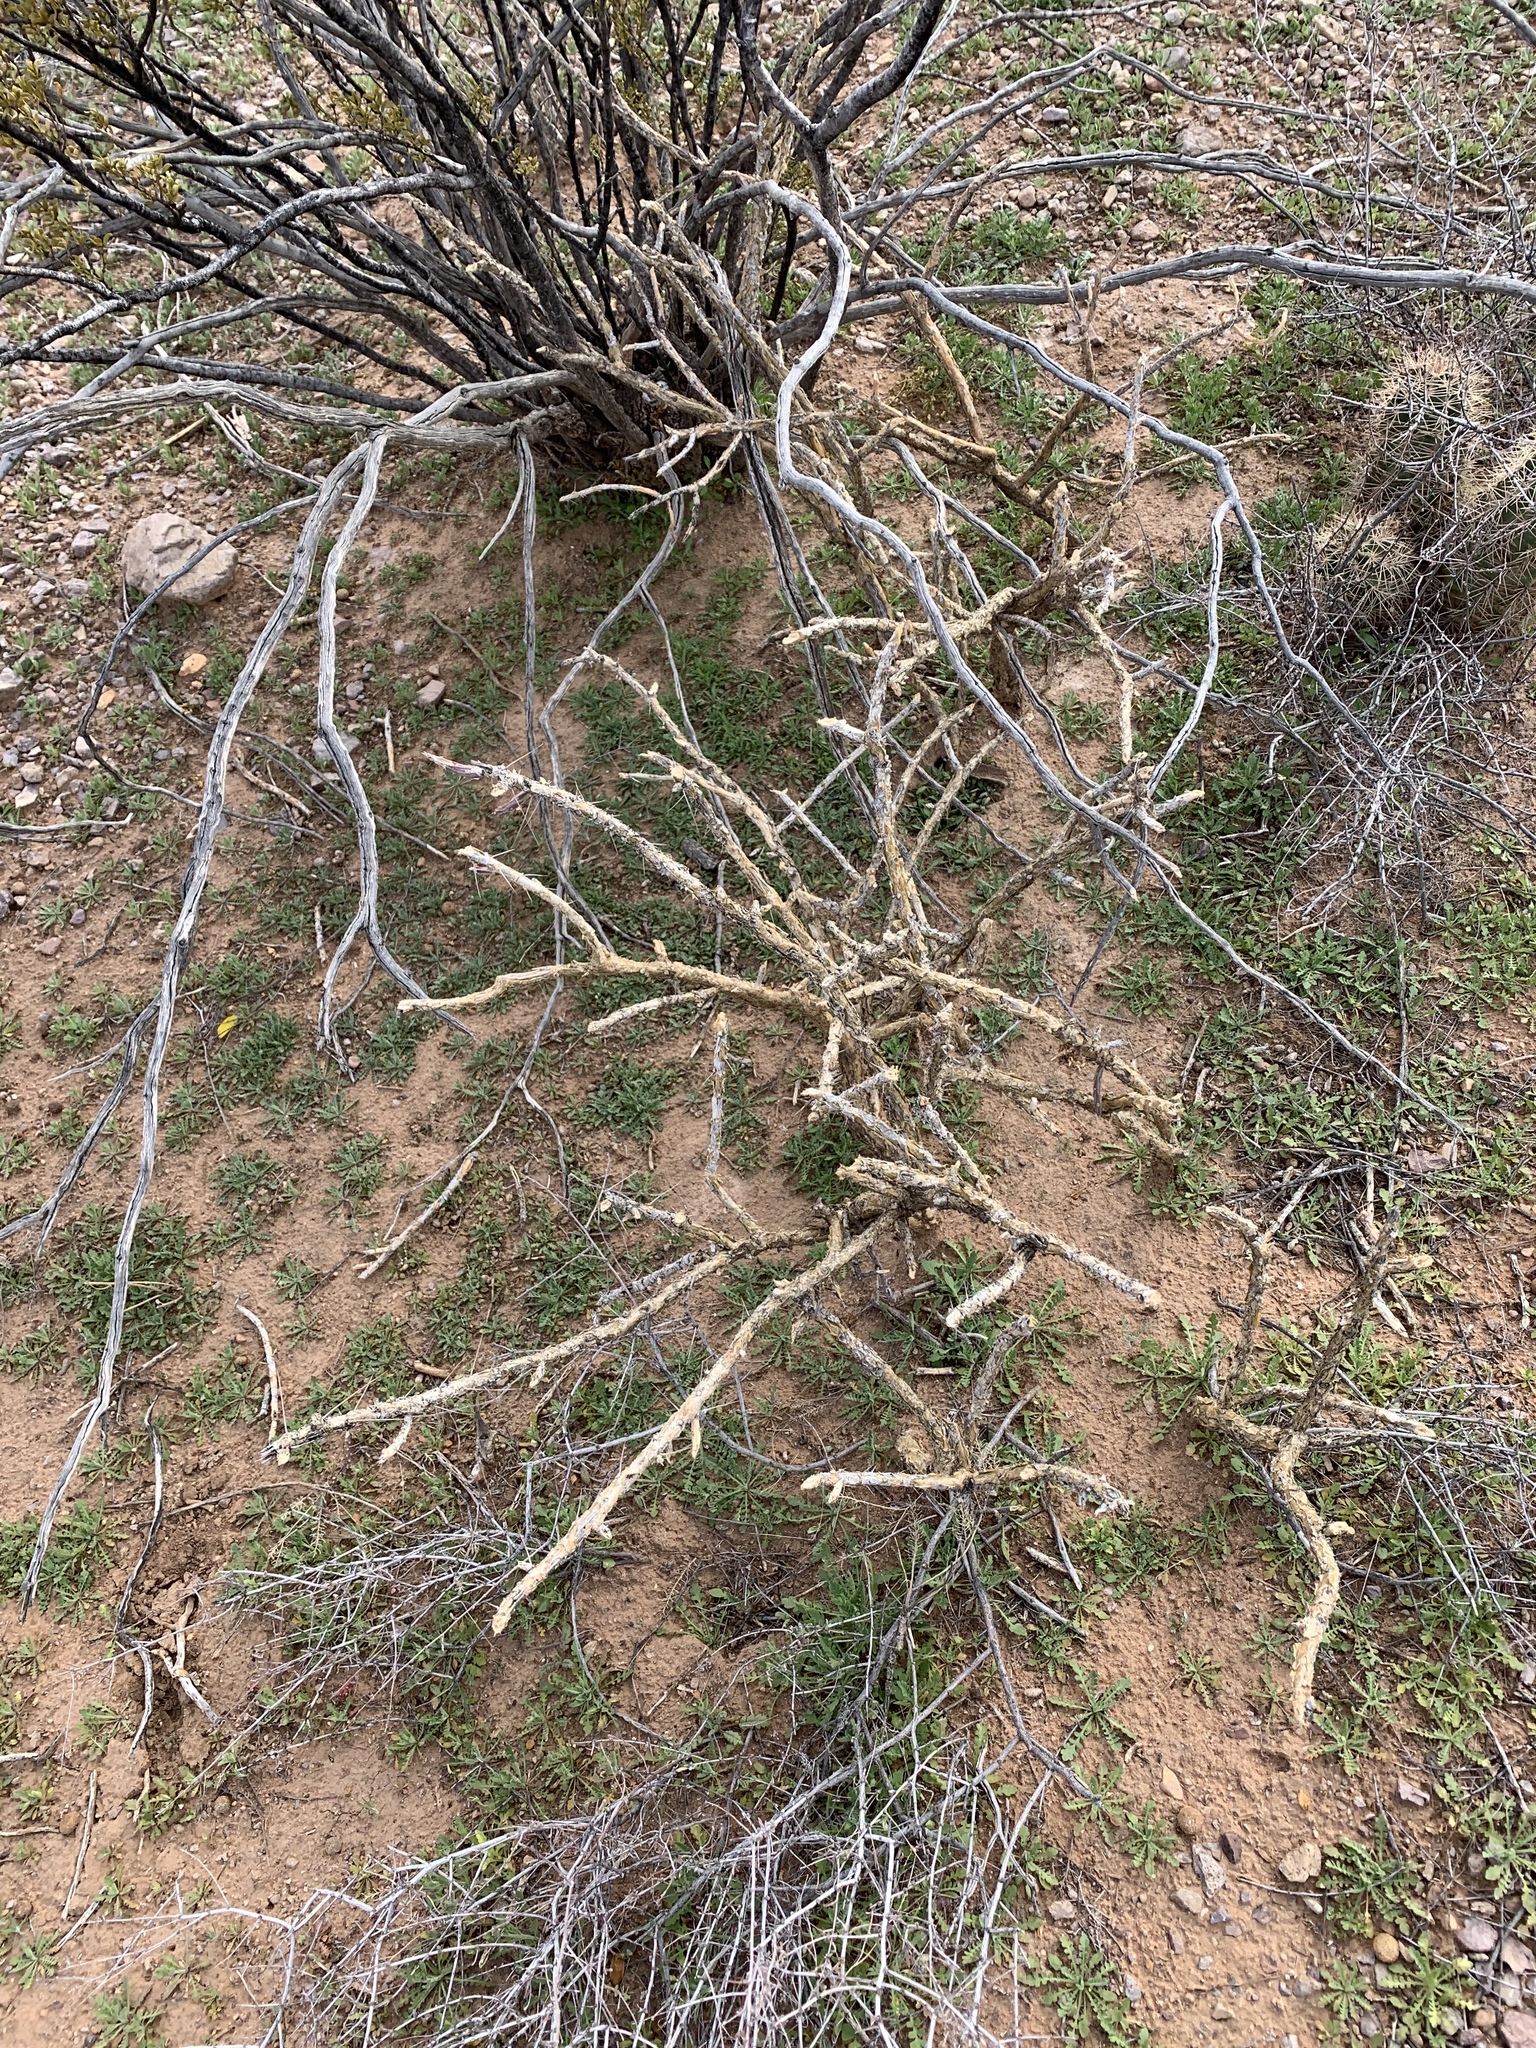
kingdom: Plantae
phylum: Tracheophyta
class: Magnoliopsida
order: Caryophyllales
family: Cactaceae
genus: Cylindropuntia
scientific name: Cylindropuntia leptocaulis
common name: Christmas cactus
